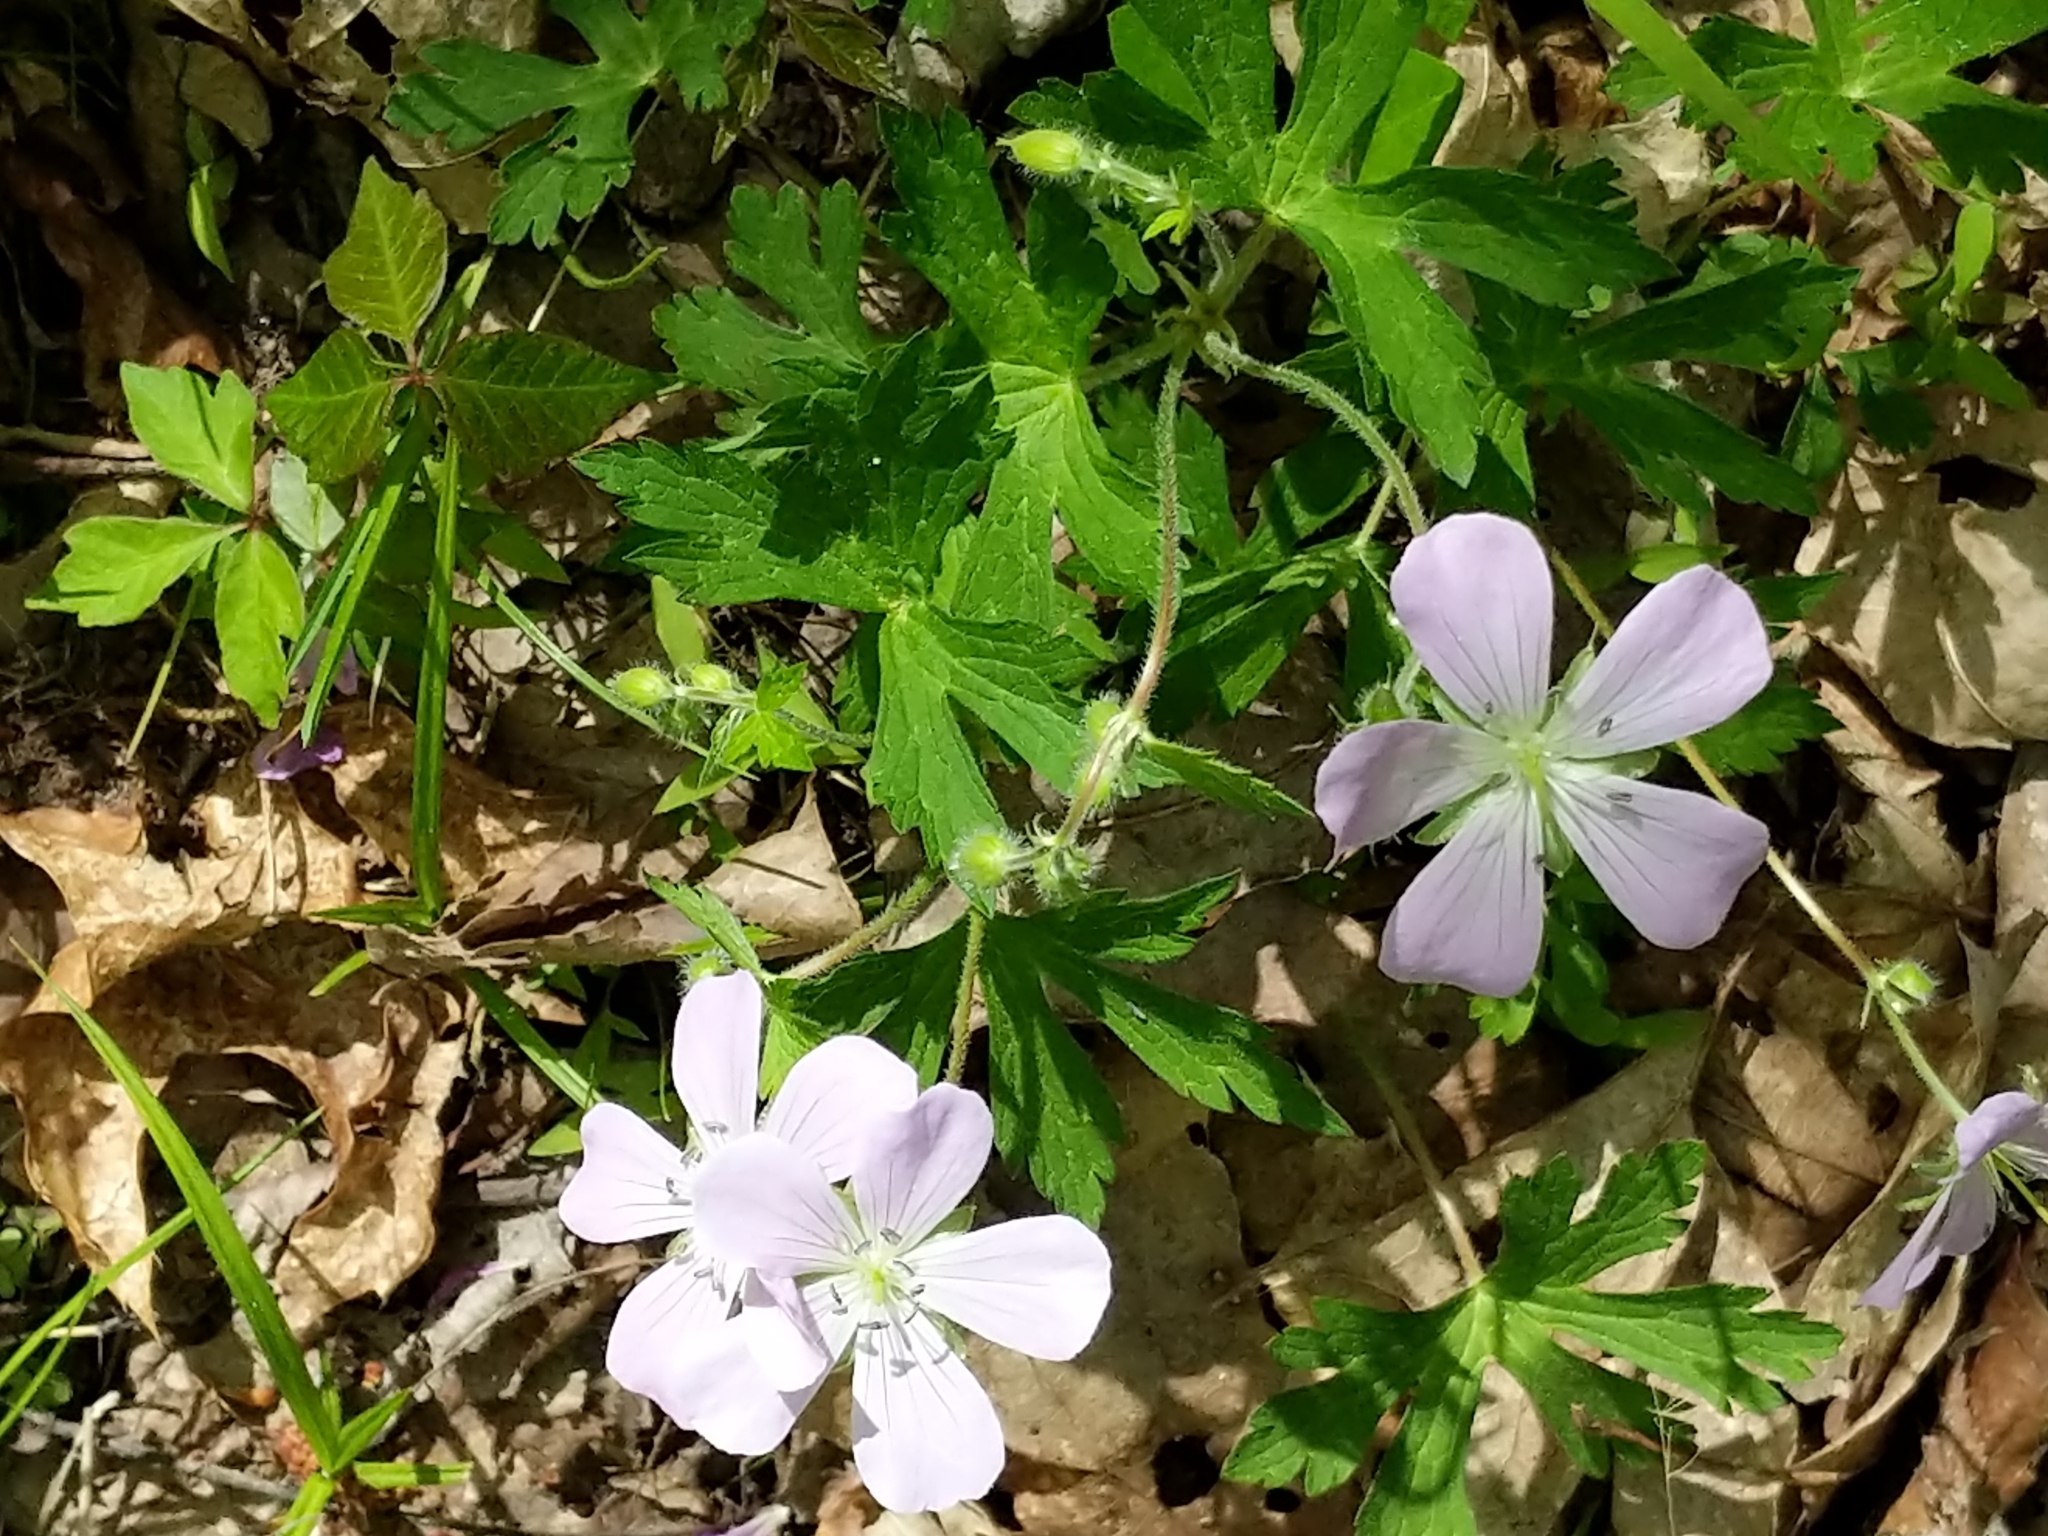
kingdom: Plantae
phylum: Tracheophyta
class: Magnoliopsida
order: Geraniales
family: Geraniaceae
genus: Geranium
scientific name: Geranium maculatum
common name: Spotted geranium
